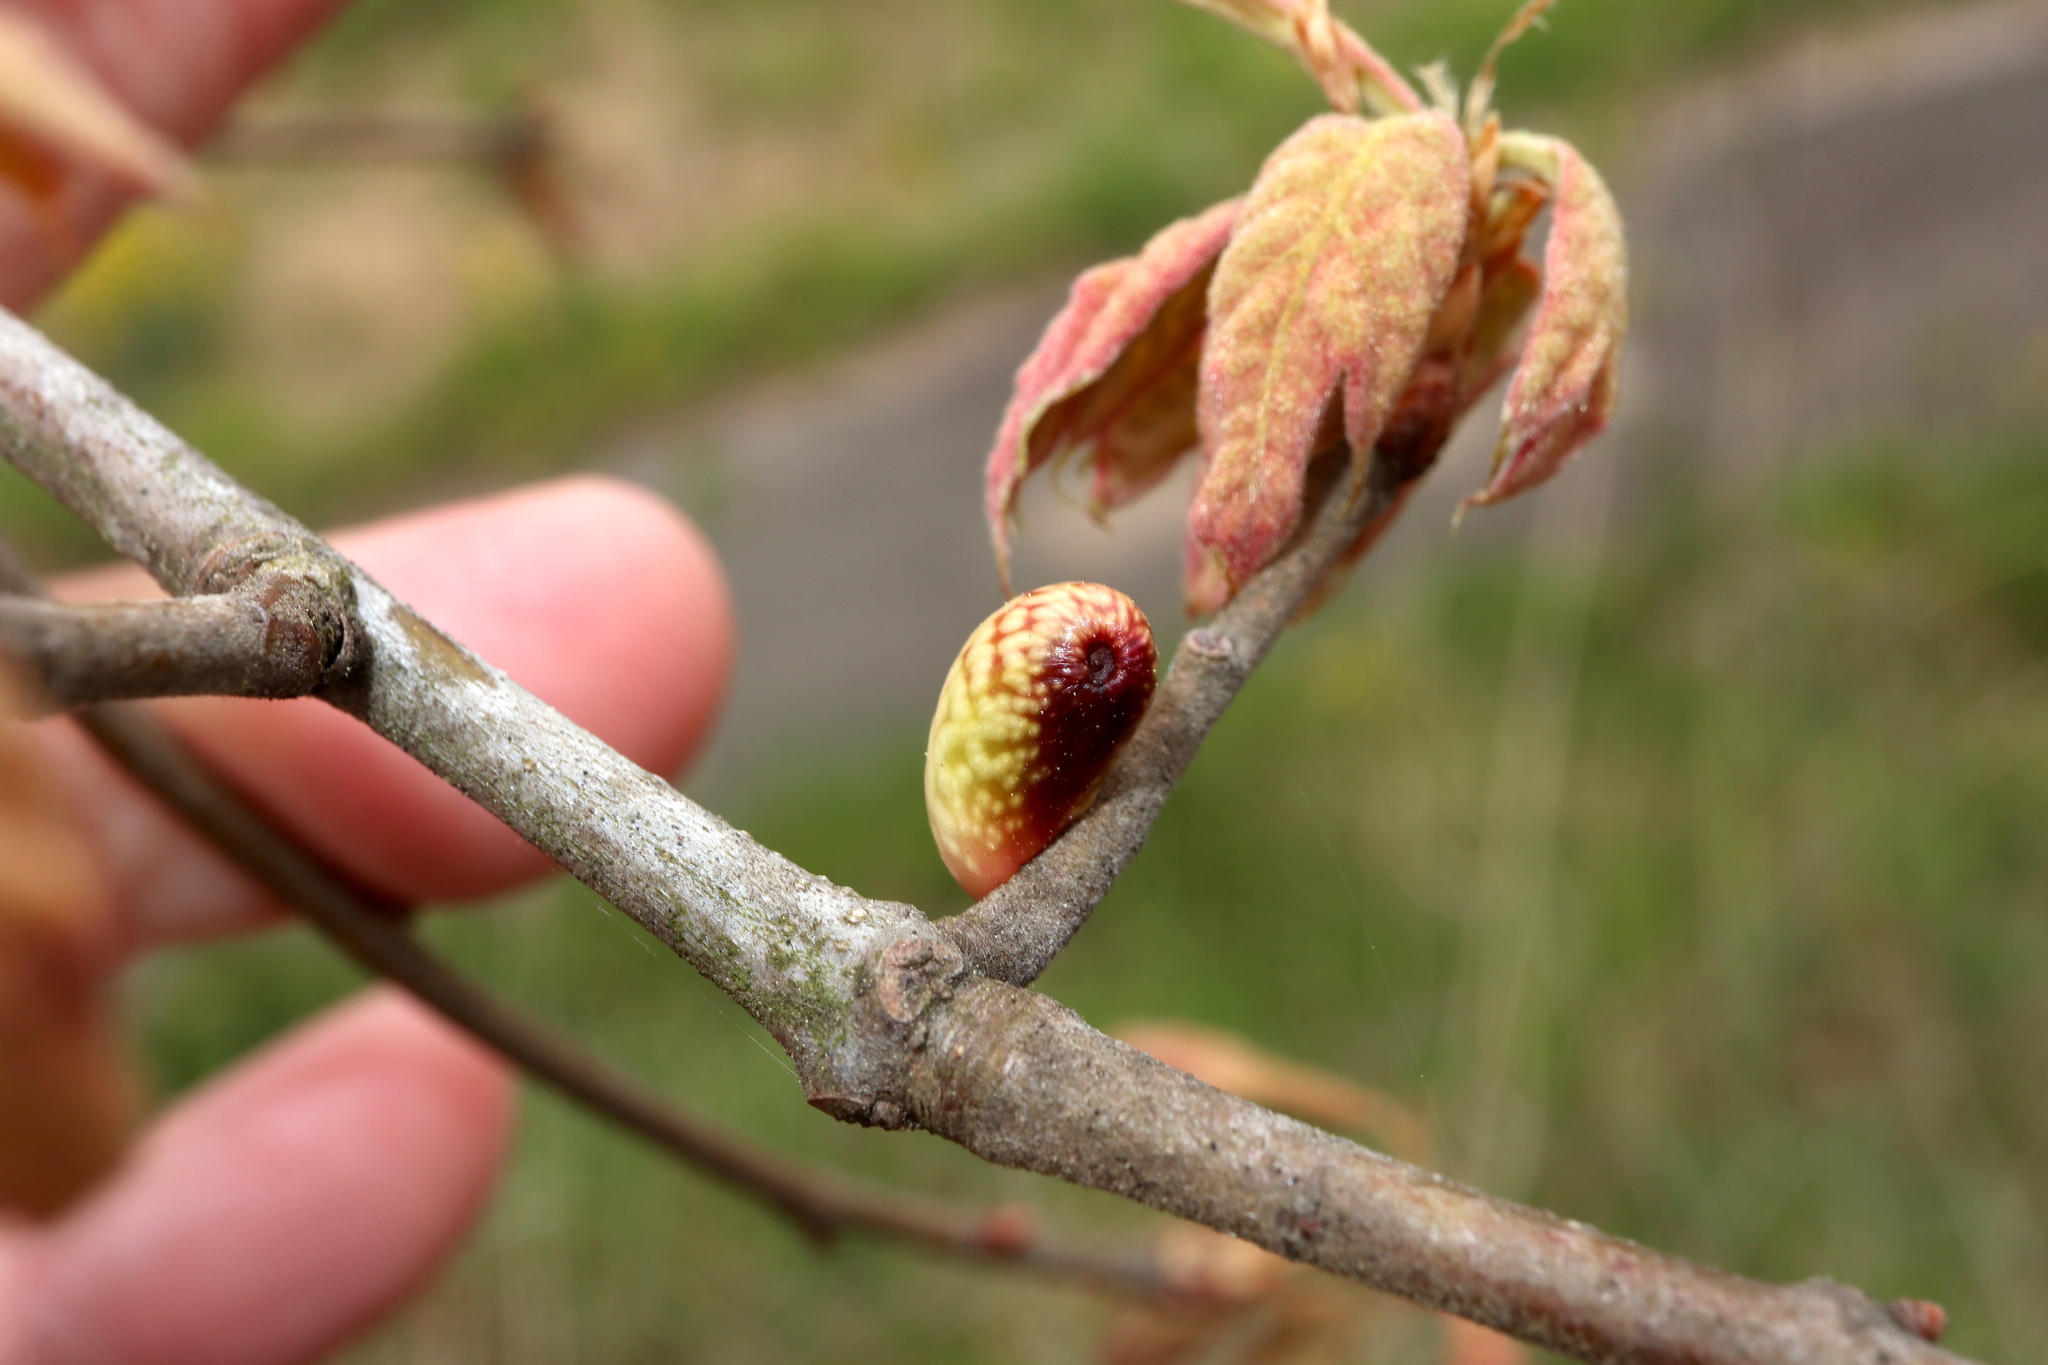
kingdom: Animalia
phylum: Arthropoda
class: Insecta
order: Hymenoptera
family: Cynipidae
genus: Amphibolips
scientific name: Amphibolips
